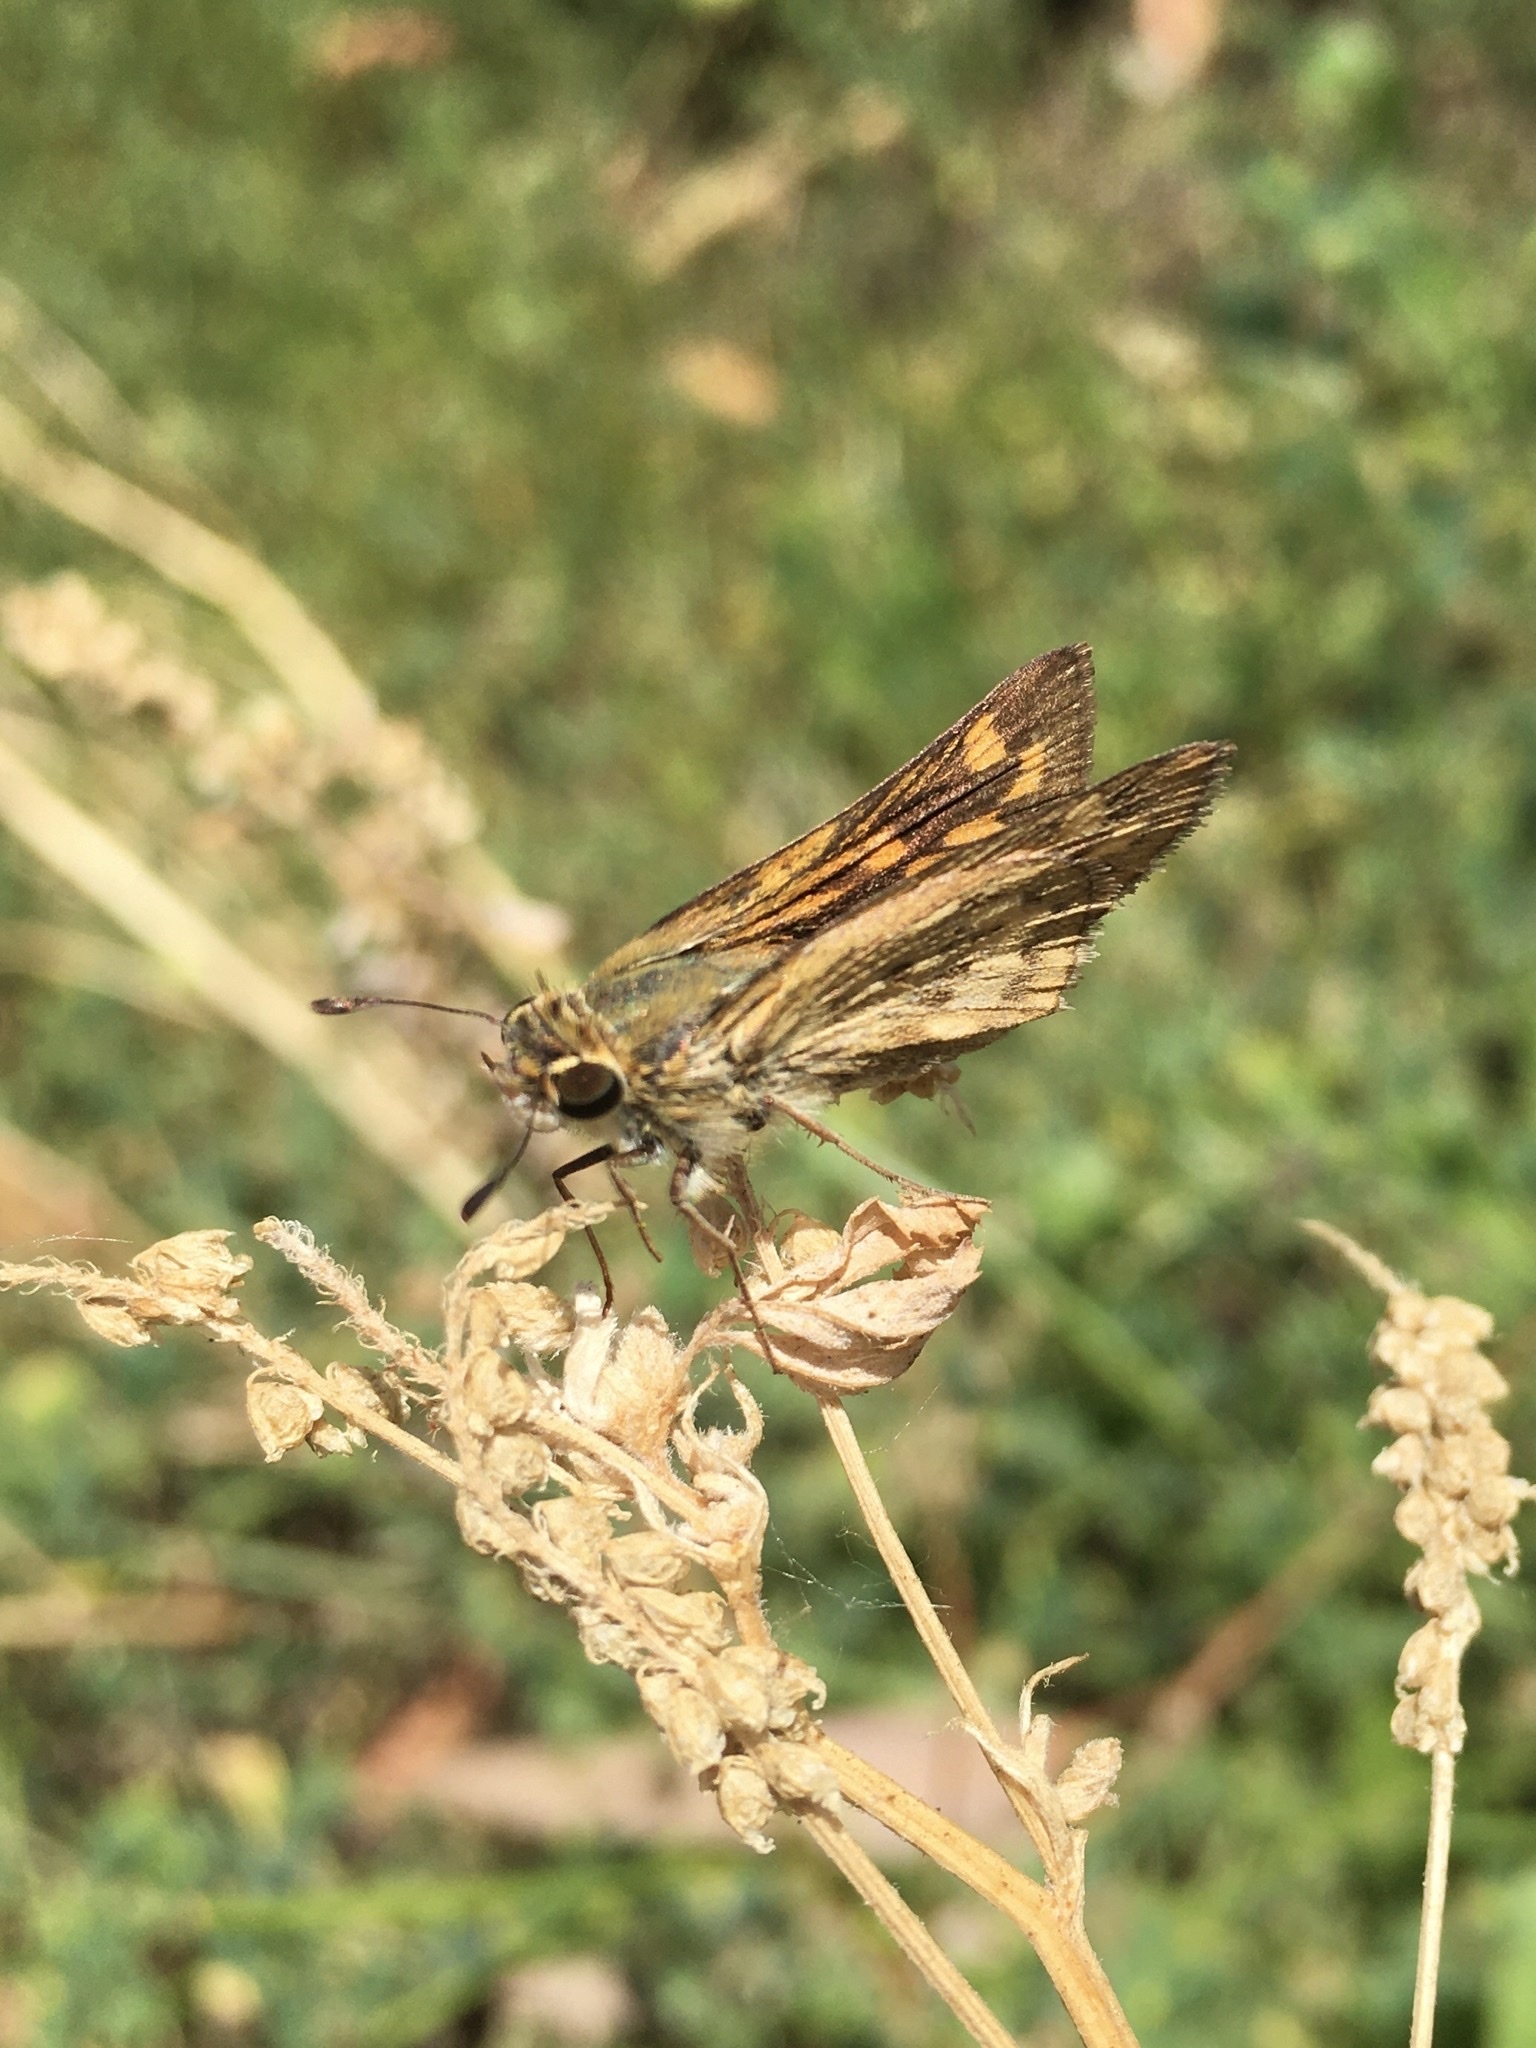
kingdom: Animalia
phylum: Arthropoda
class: Insecta
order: Lepidoptera
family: Hesperiidae
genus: Hylephila
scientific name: Hylephila phyleus
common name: Fiery skipper
